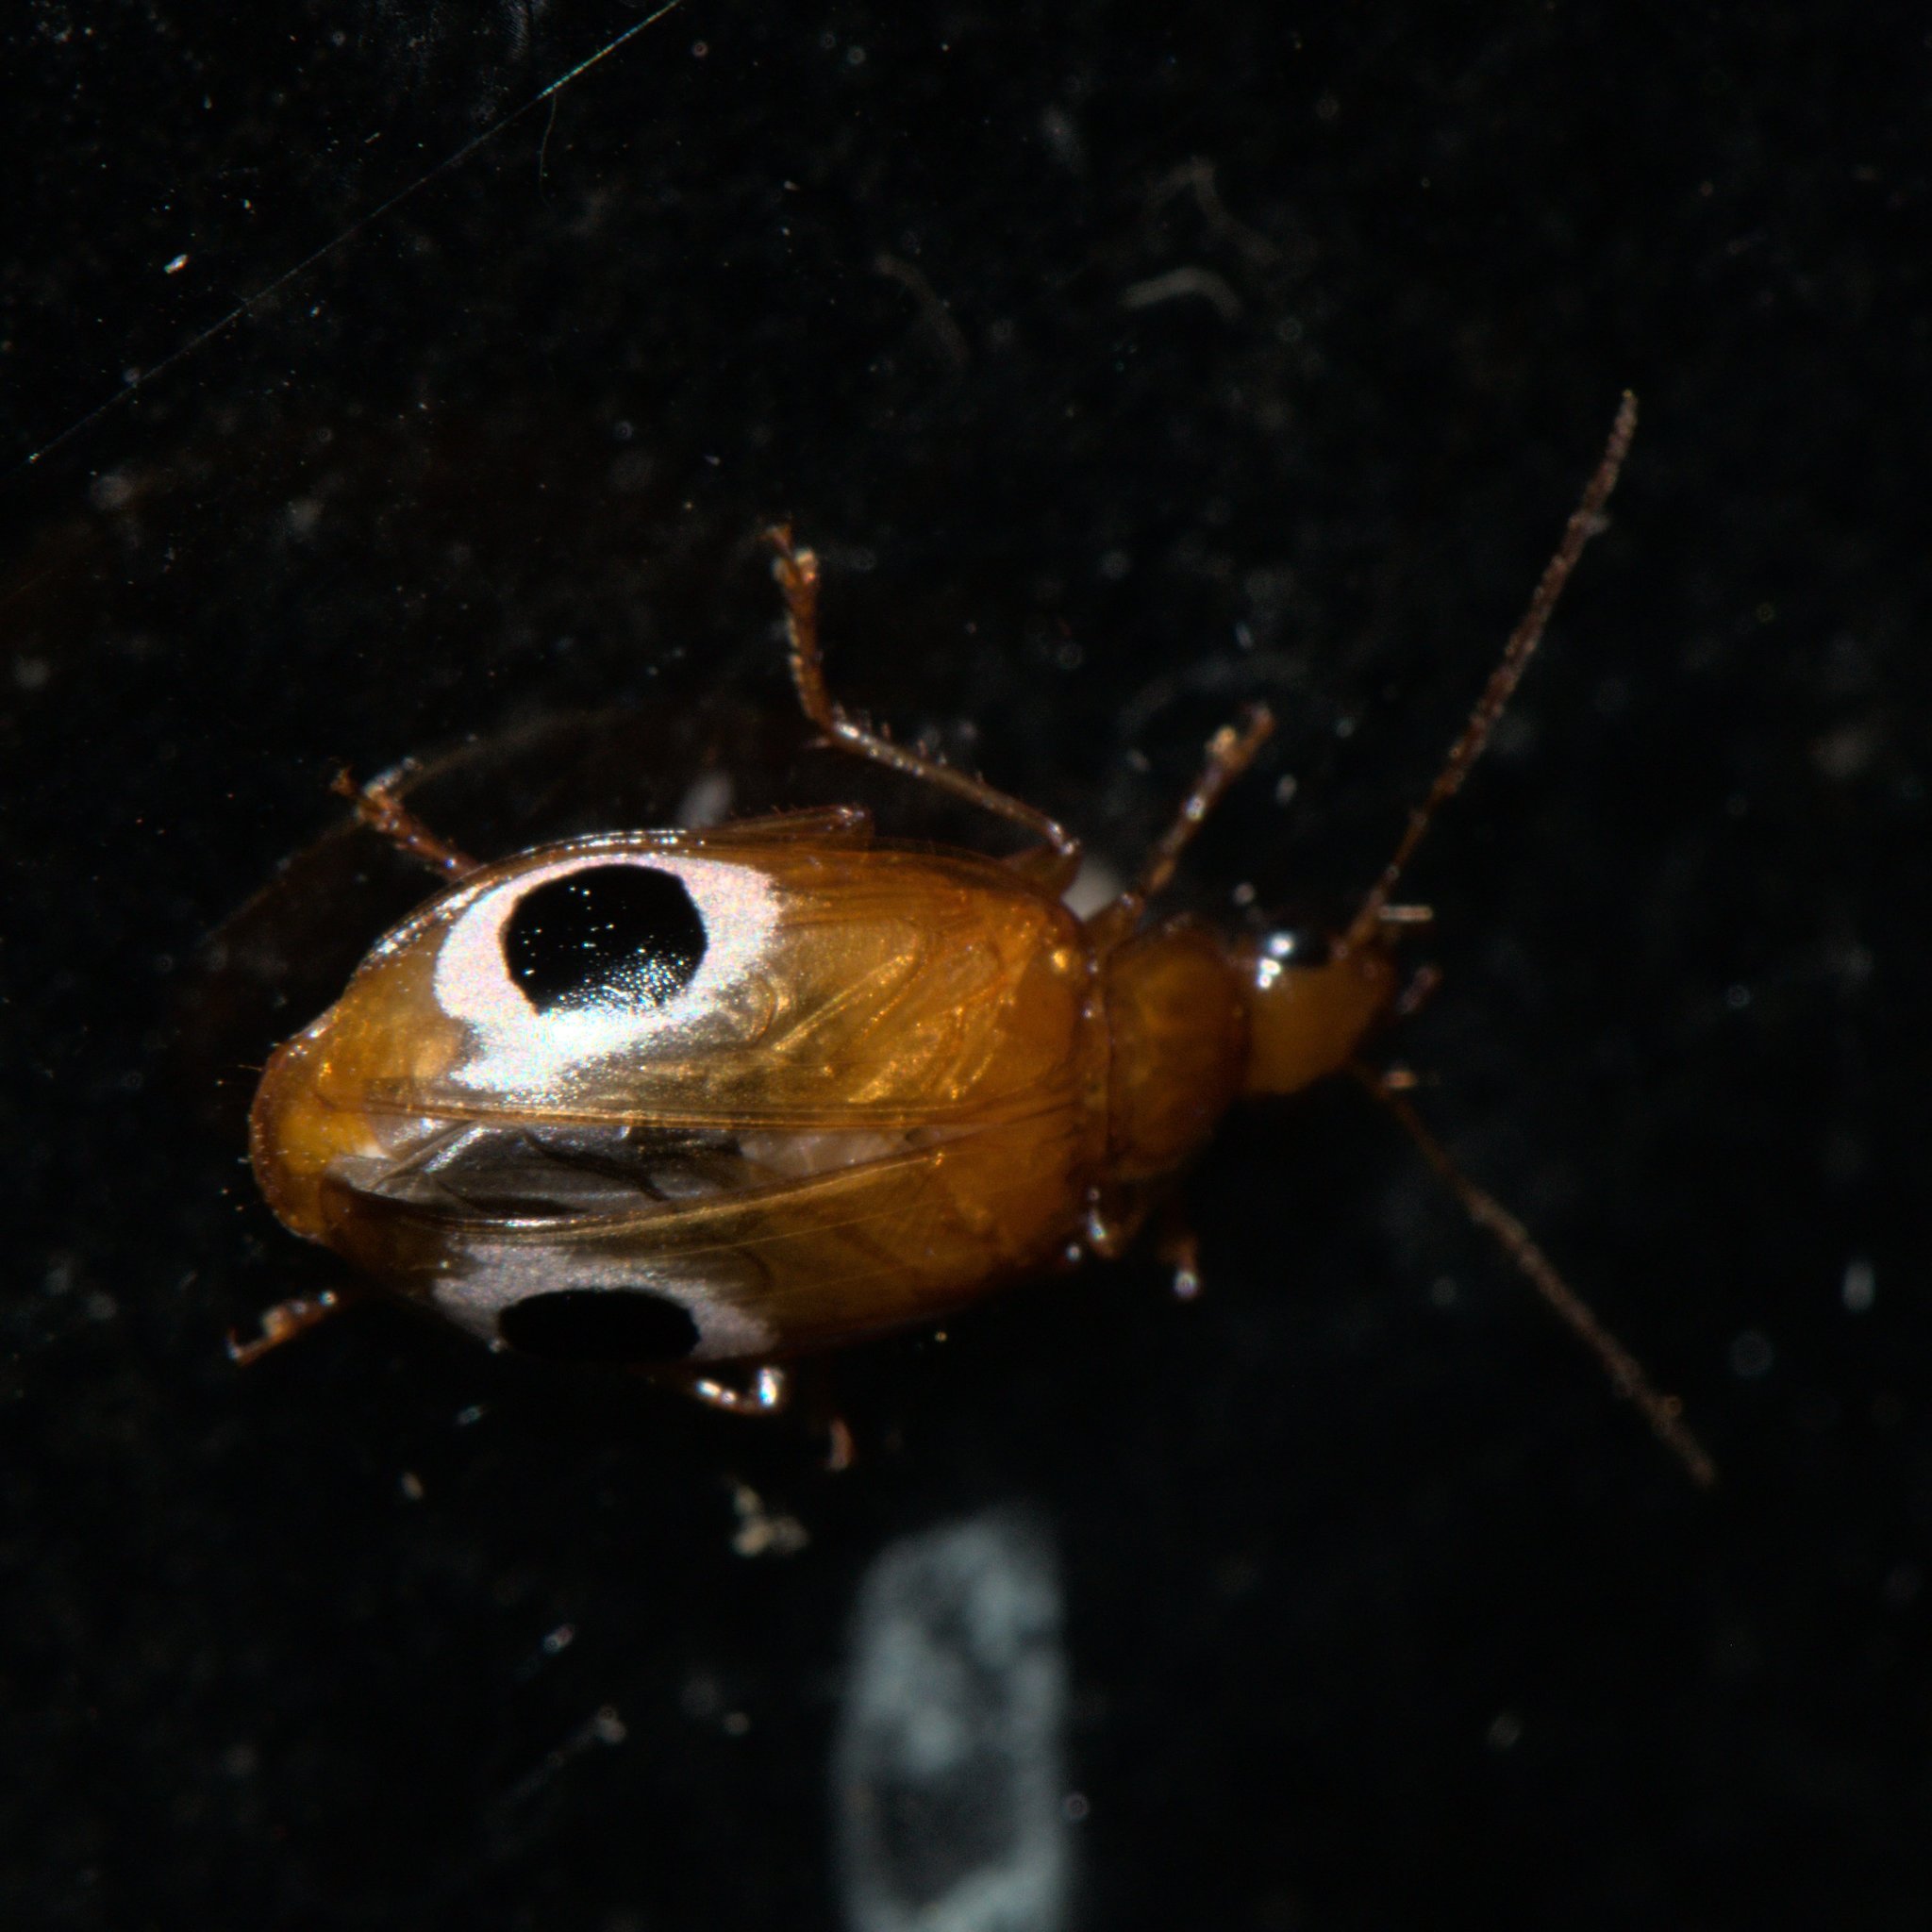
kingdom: Animalia
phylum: Arthropoda
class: Insecta
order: Coleoptera
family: Carabidae
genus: Lebidia
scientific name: Lebidia bioculata
